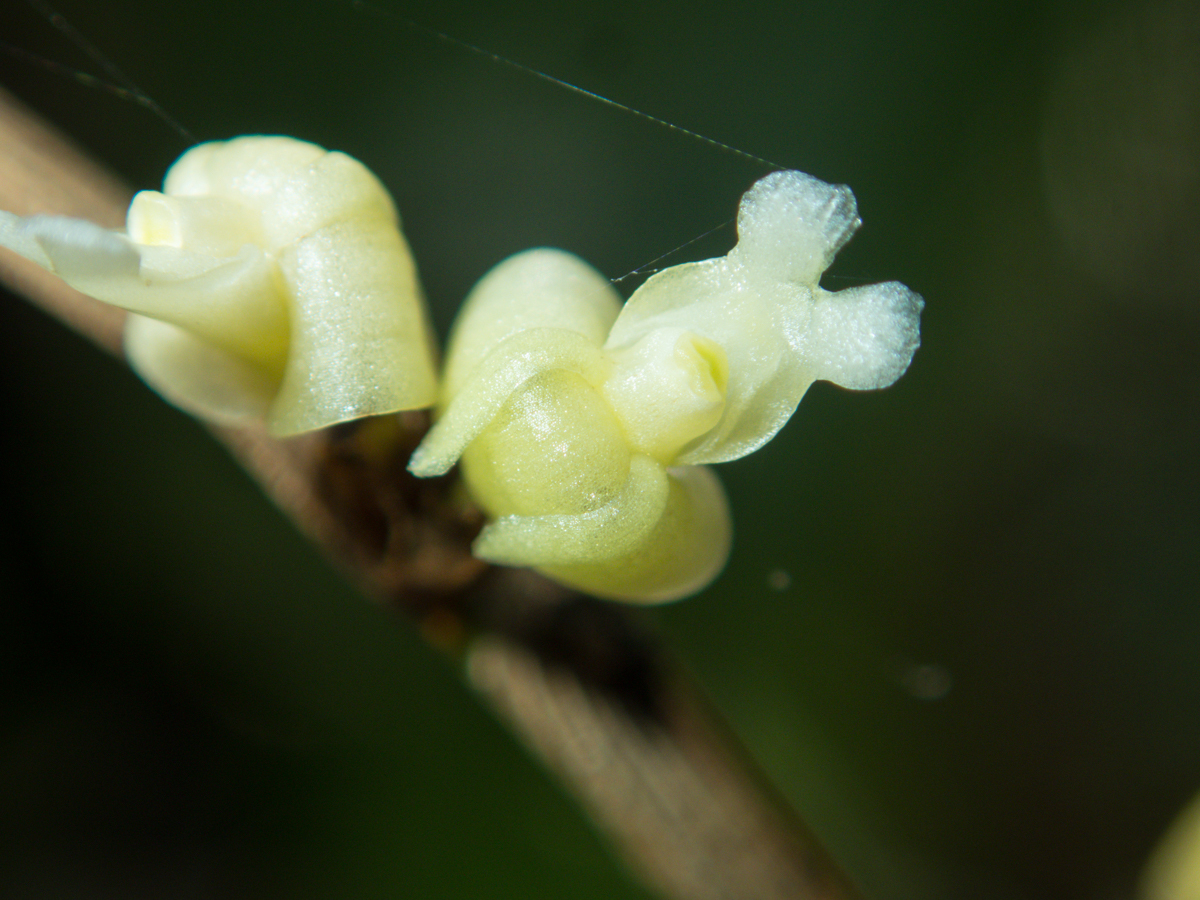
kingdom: Plantae
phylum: Tracheophyta
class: Liliopsida
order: Asparagales
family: Orchidaceae
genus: Dendrobium
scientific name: Dendrobium aloifolium
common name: Aloe-like dendrobium
